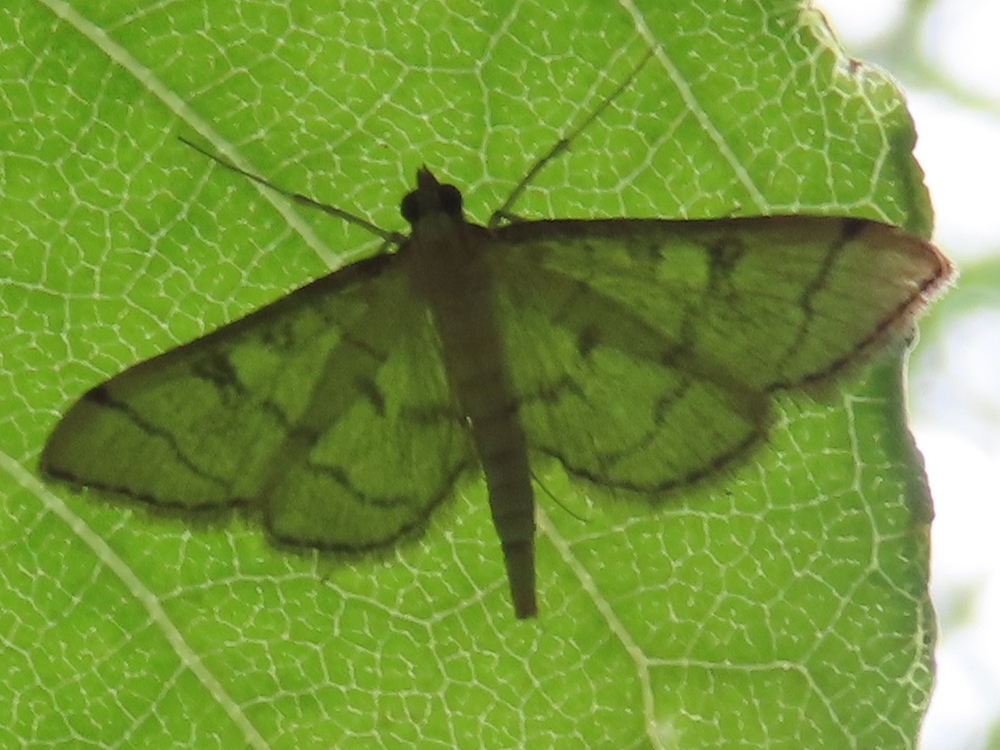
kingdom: Animalia
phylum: Arthropoda
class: Insecta
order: Lepidoptera
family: Crambidae
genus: Lamprosema
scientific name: Lamprosema Blepharomastix ranalis
